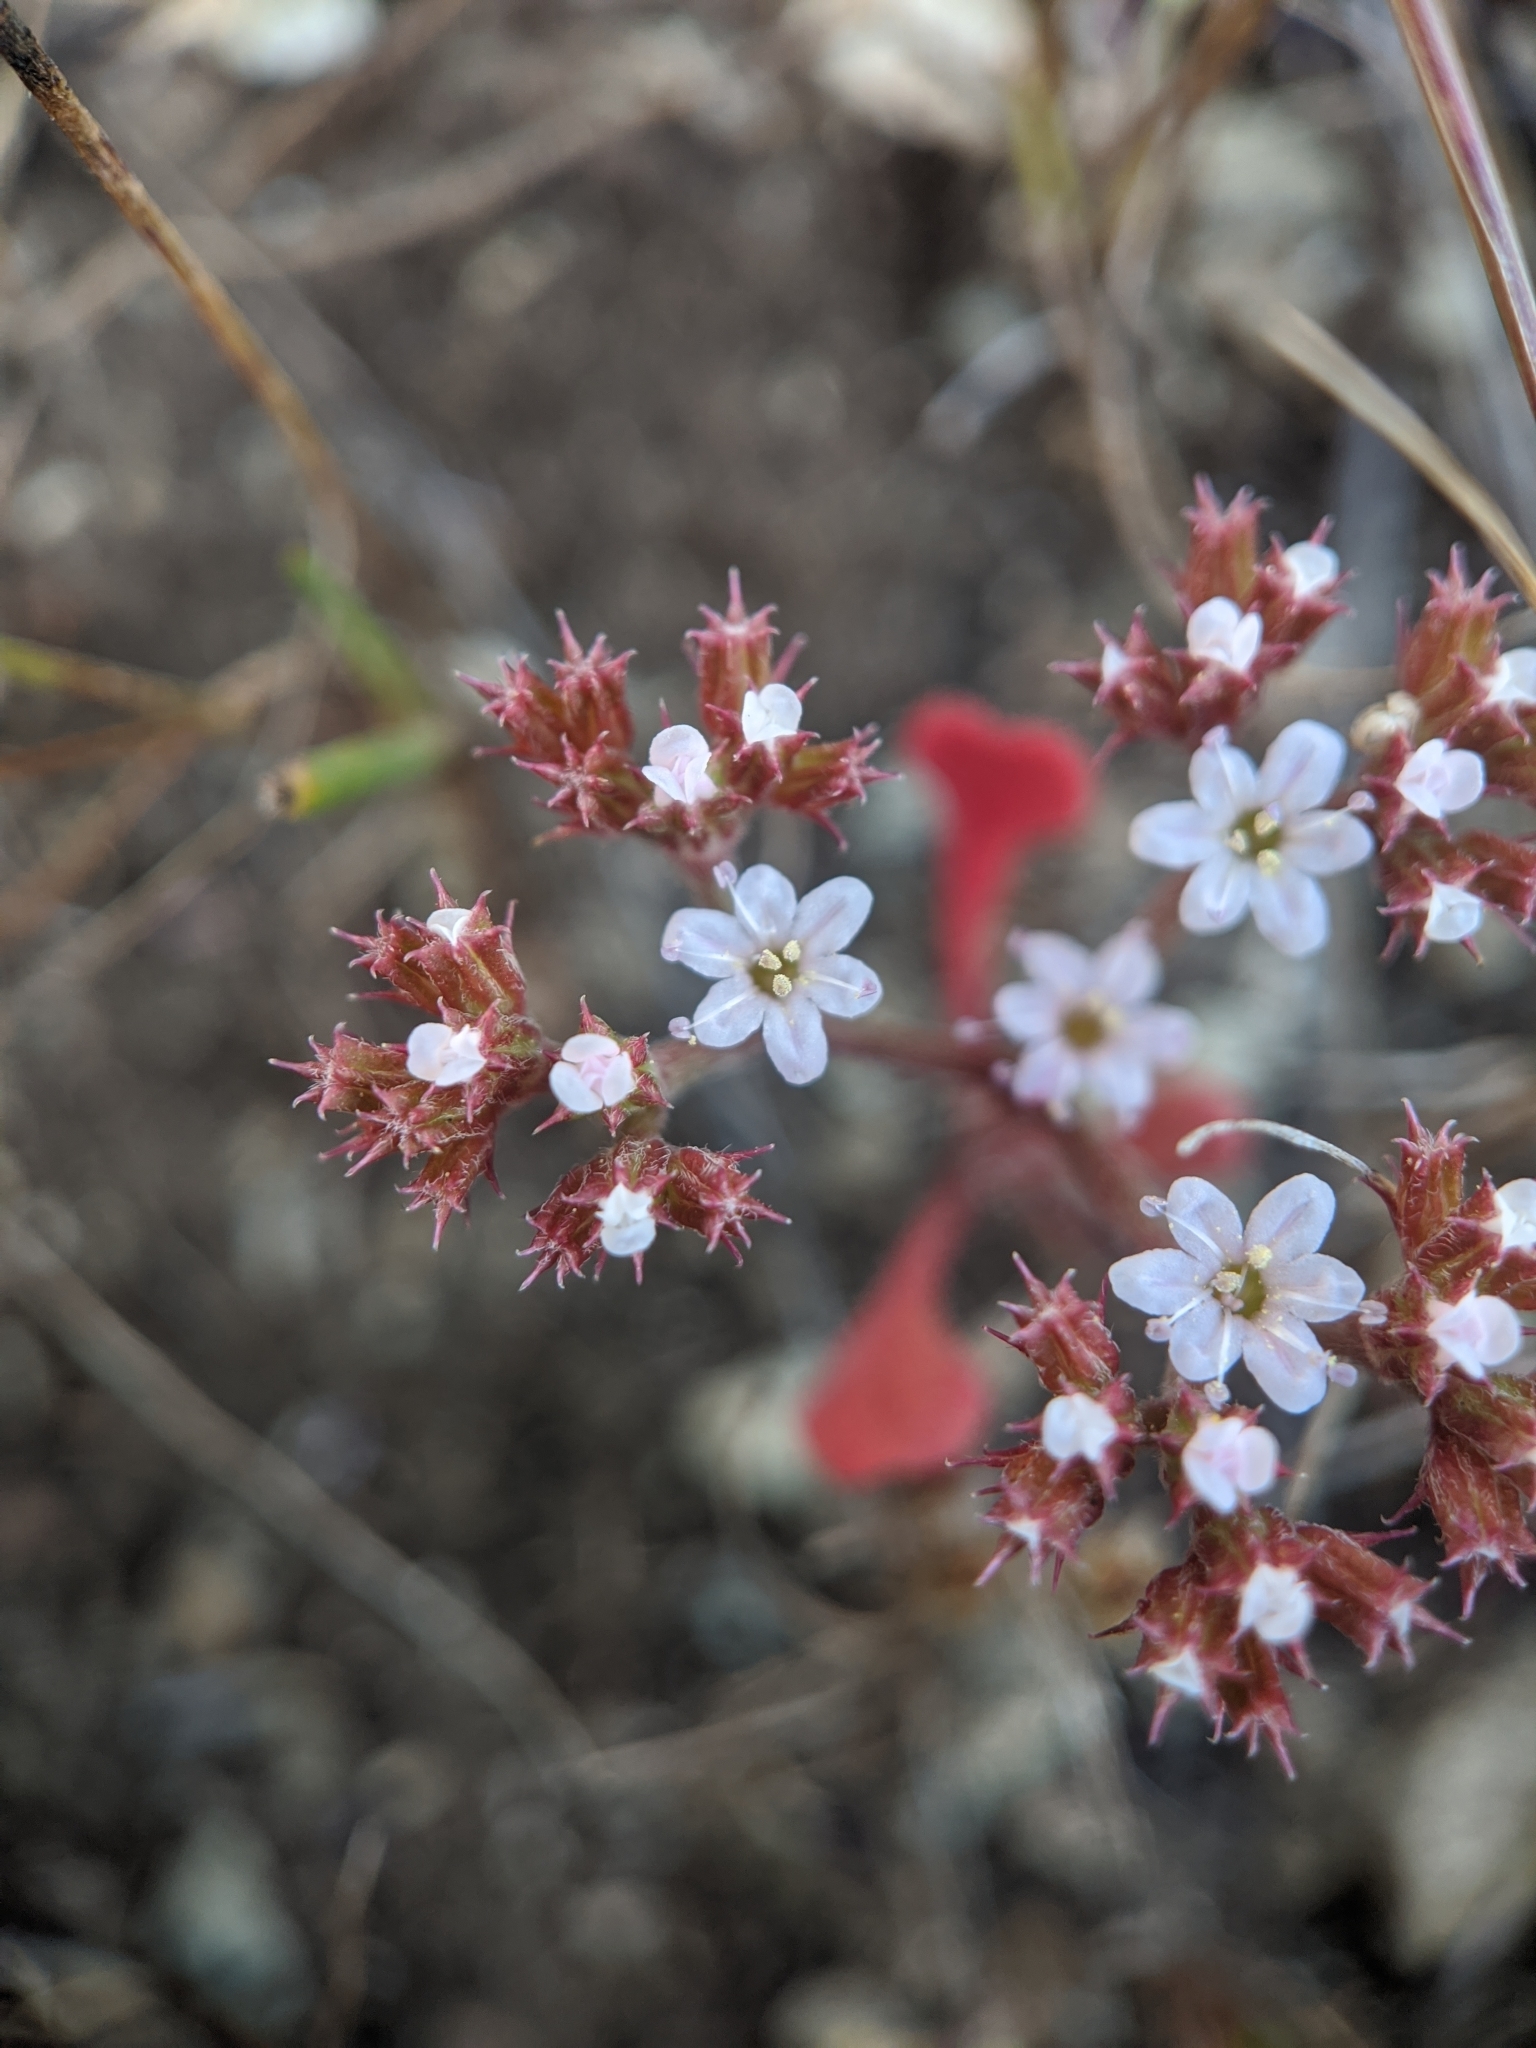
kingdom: Plantae
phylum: Tracheophyta
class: Magnoliopsida
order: Caryophyllales
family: Polygonaceae
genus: Chorizanthe
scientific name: Chorizanthe breweri
